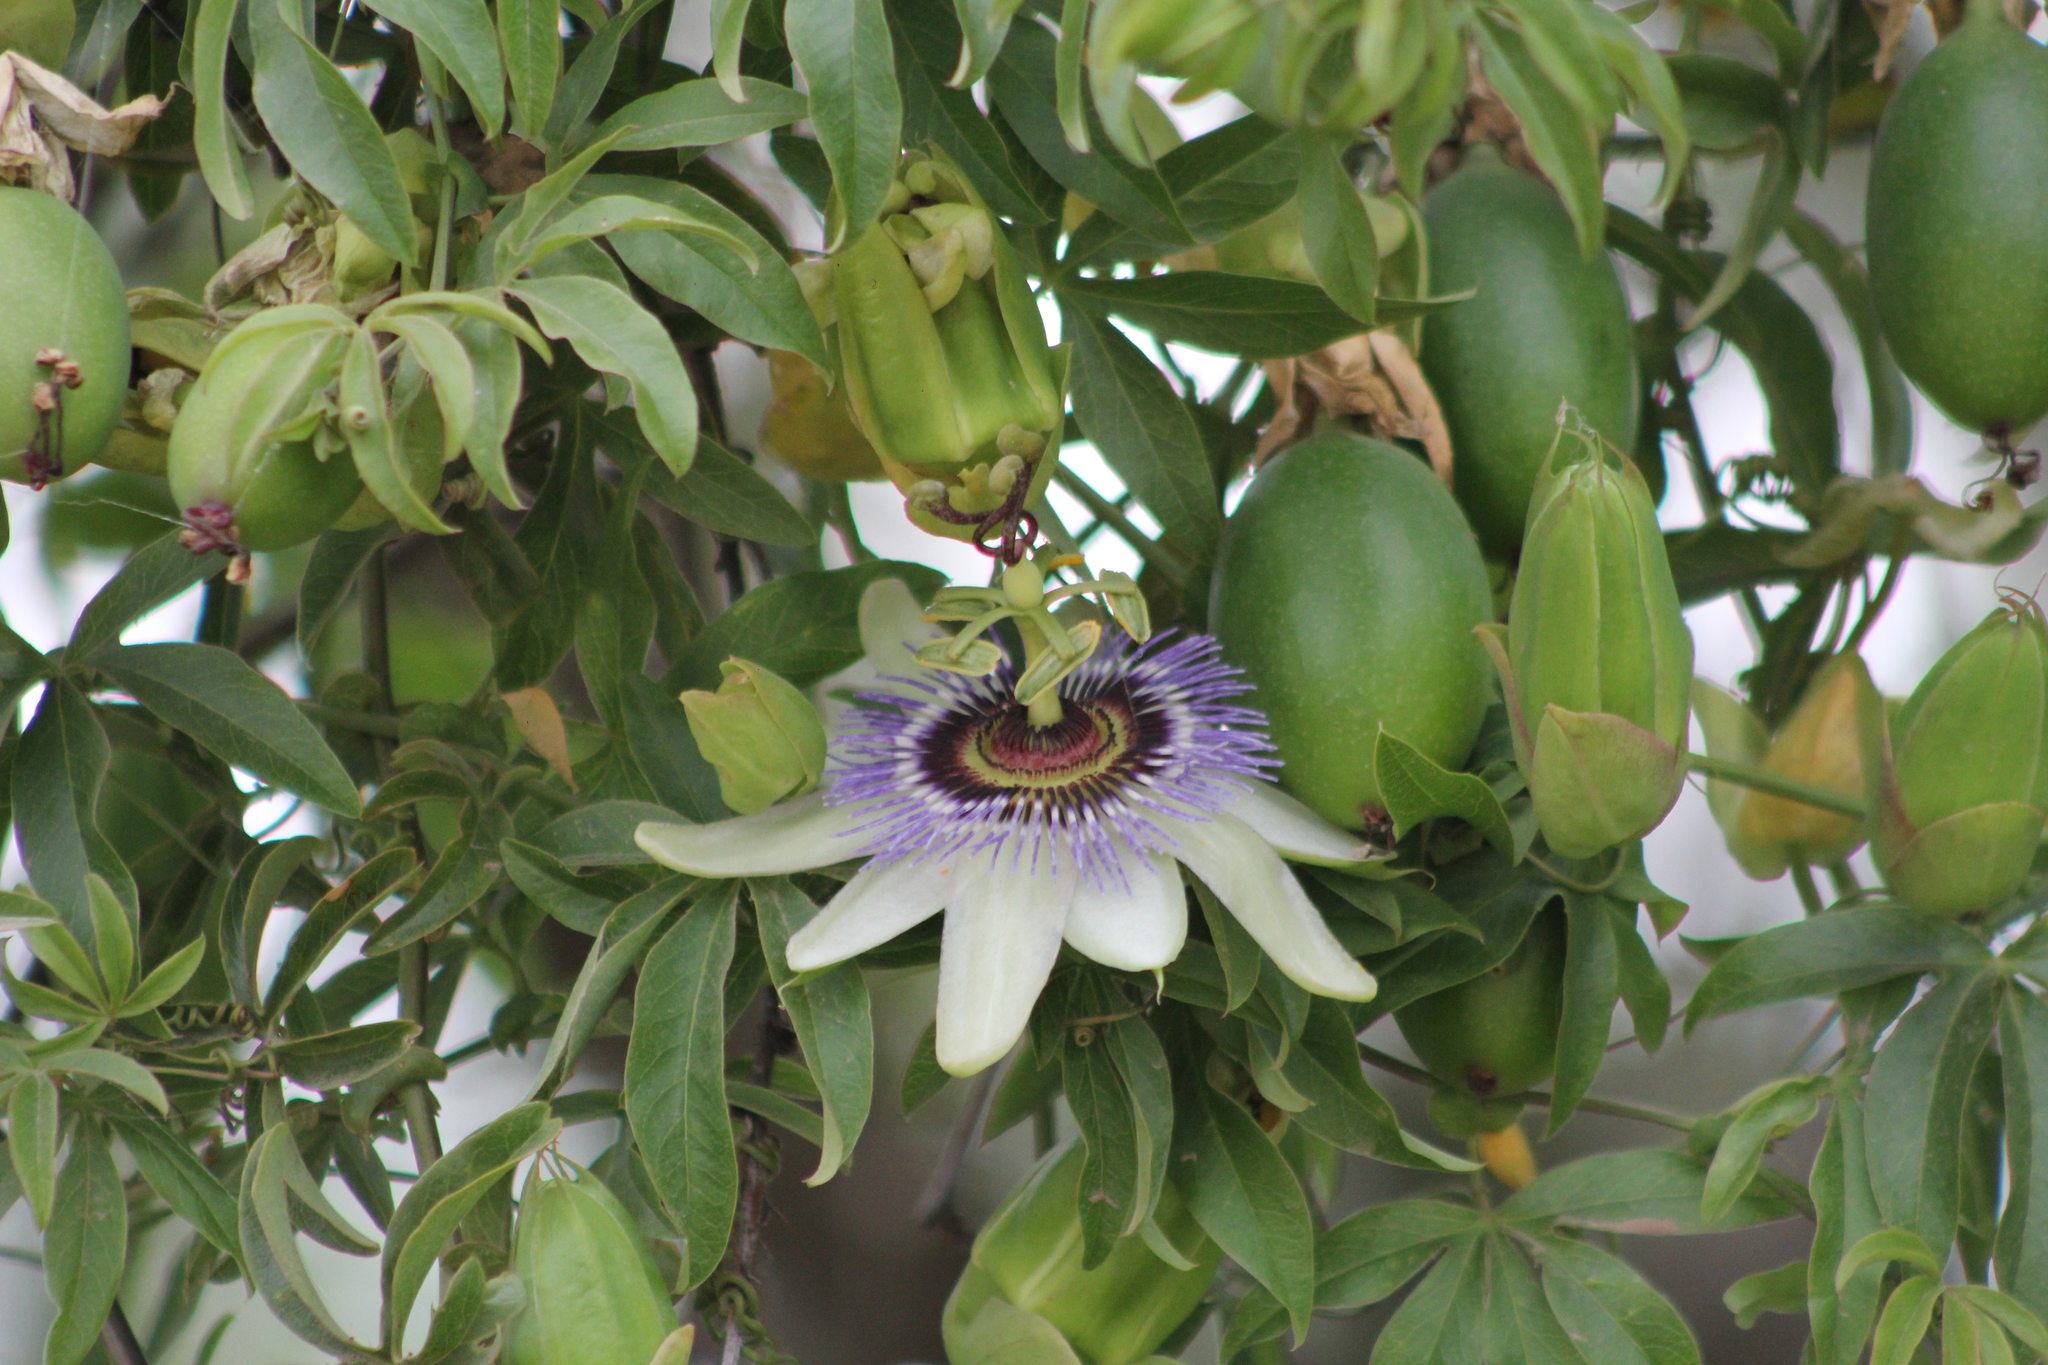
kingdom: Plantae
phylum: Tracheophyta
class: Magnoliopsida
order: Malpighiales
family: Passifloraceae
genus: Passiflora
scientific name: Passiflora caerulea
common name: Blue passionflower
